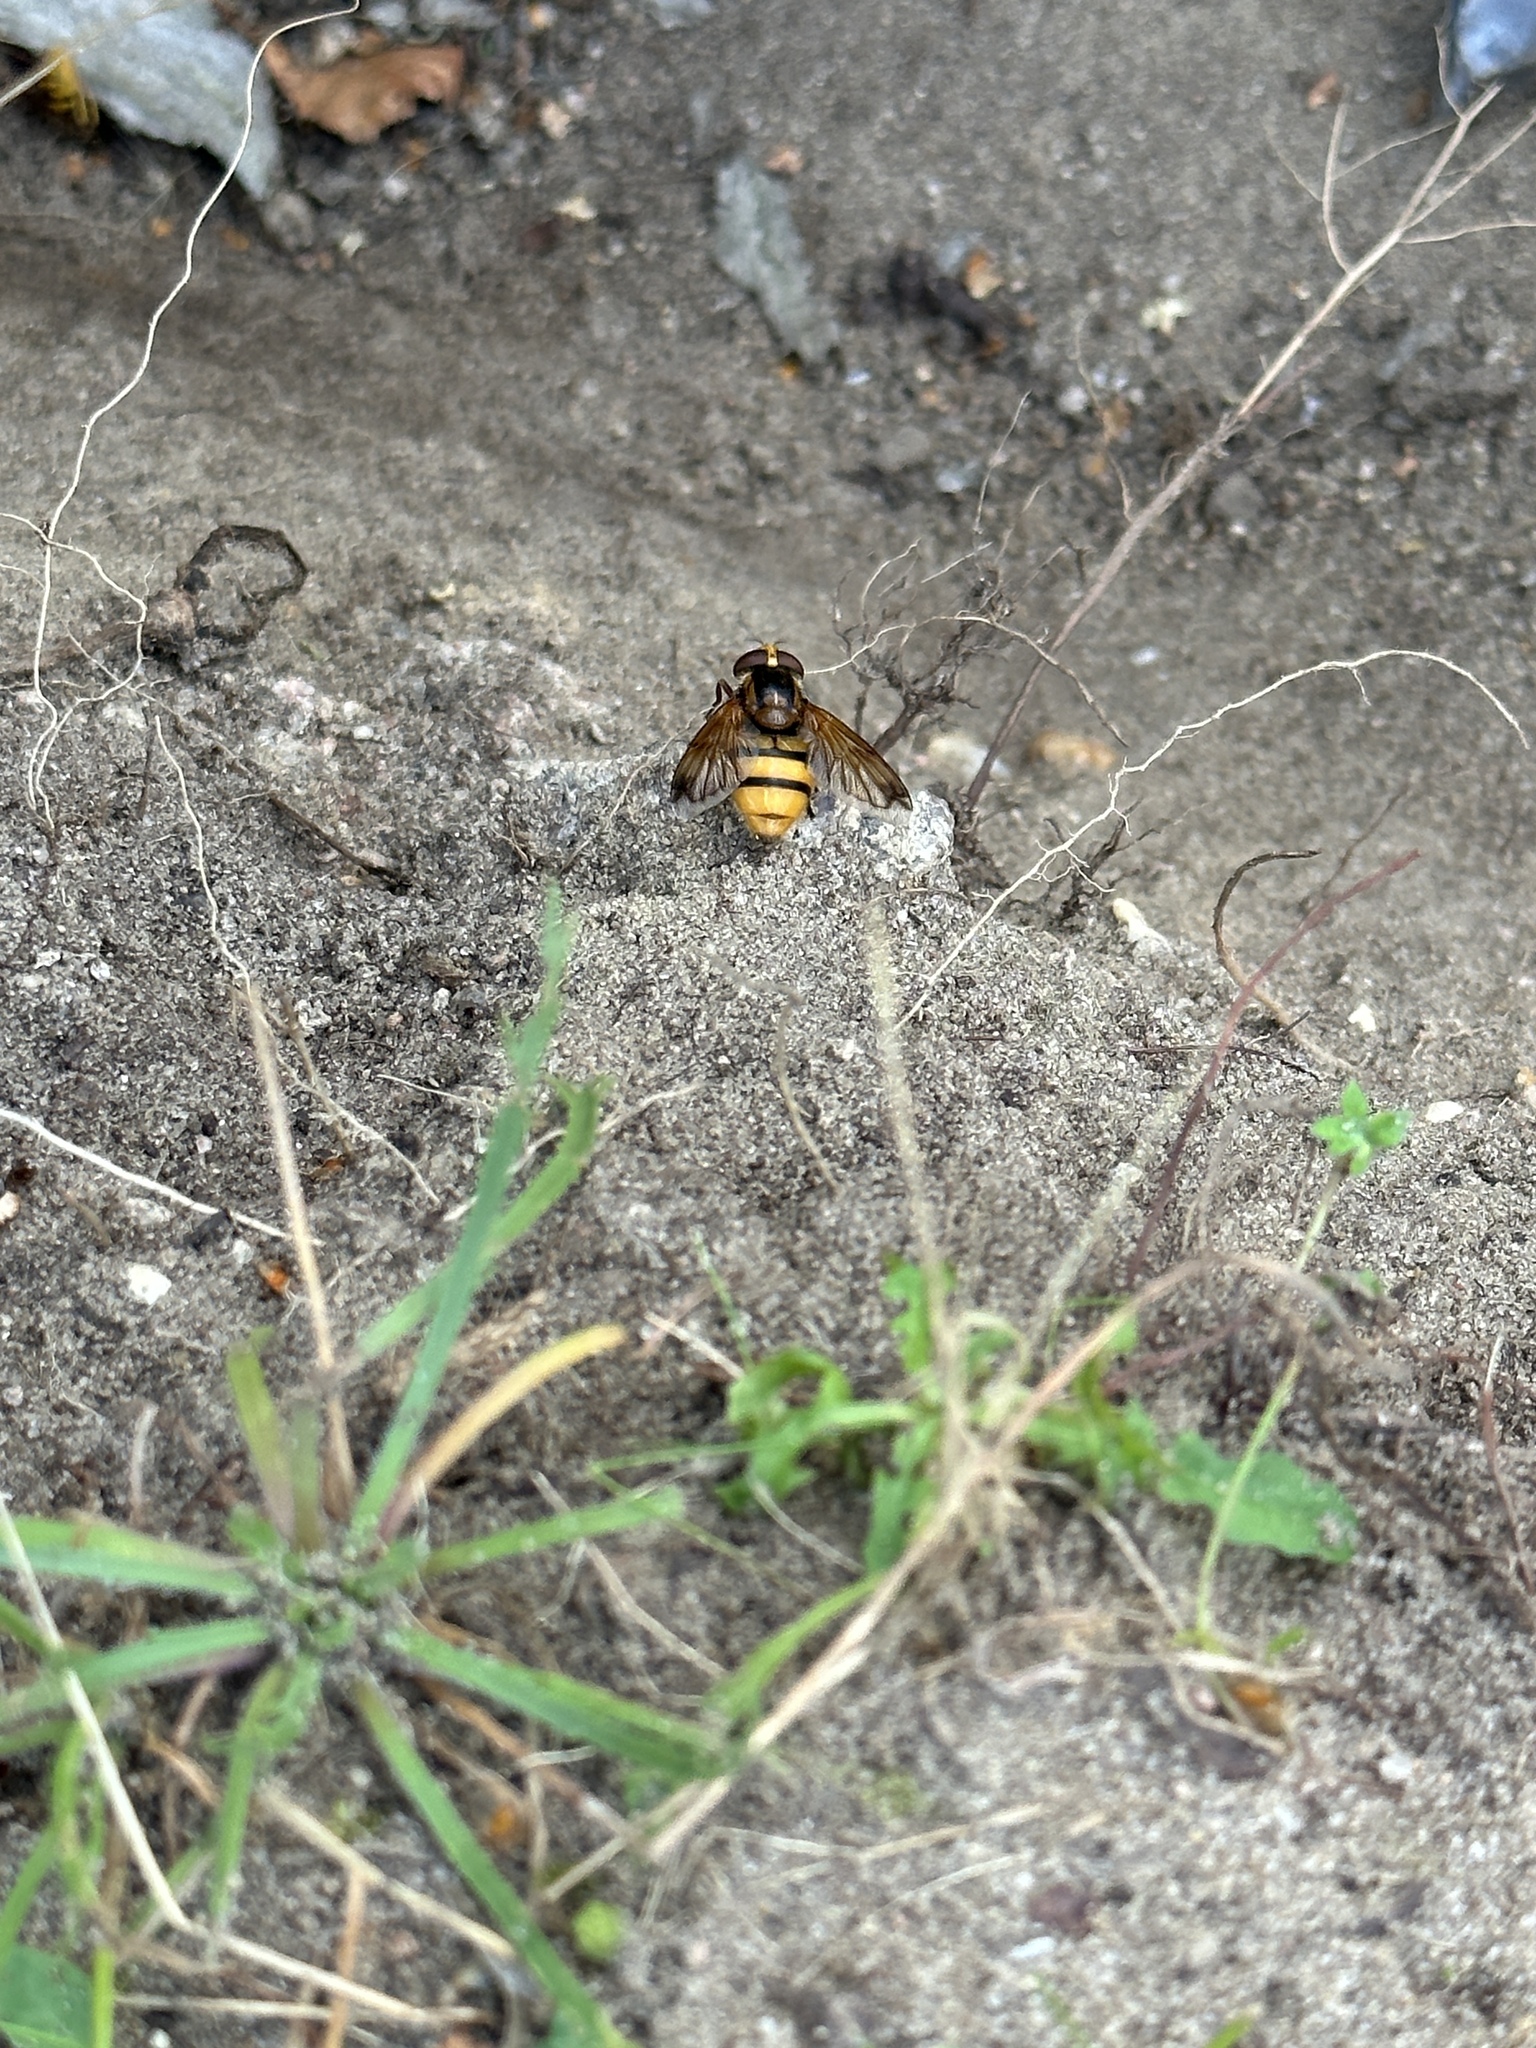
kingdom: Animalia
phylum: Arthropoda
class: Insecta
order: Diptera
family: Syrphidae
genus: Volucella
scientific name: Volucella inanis
